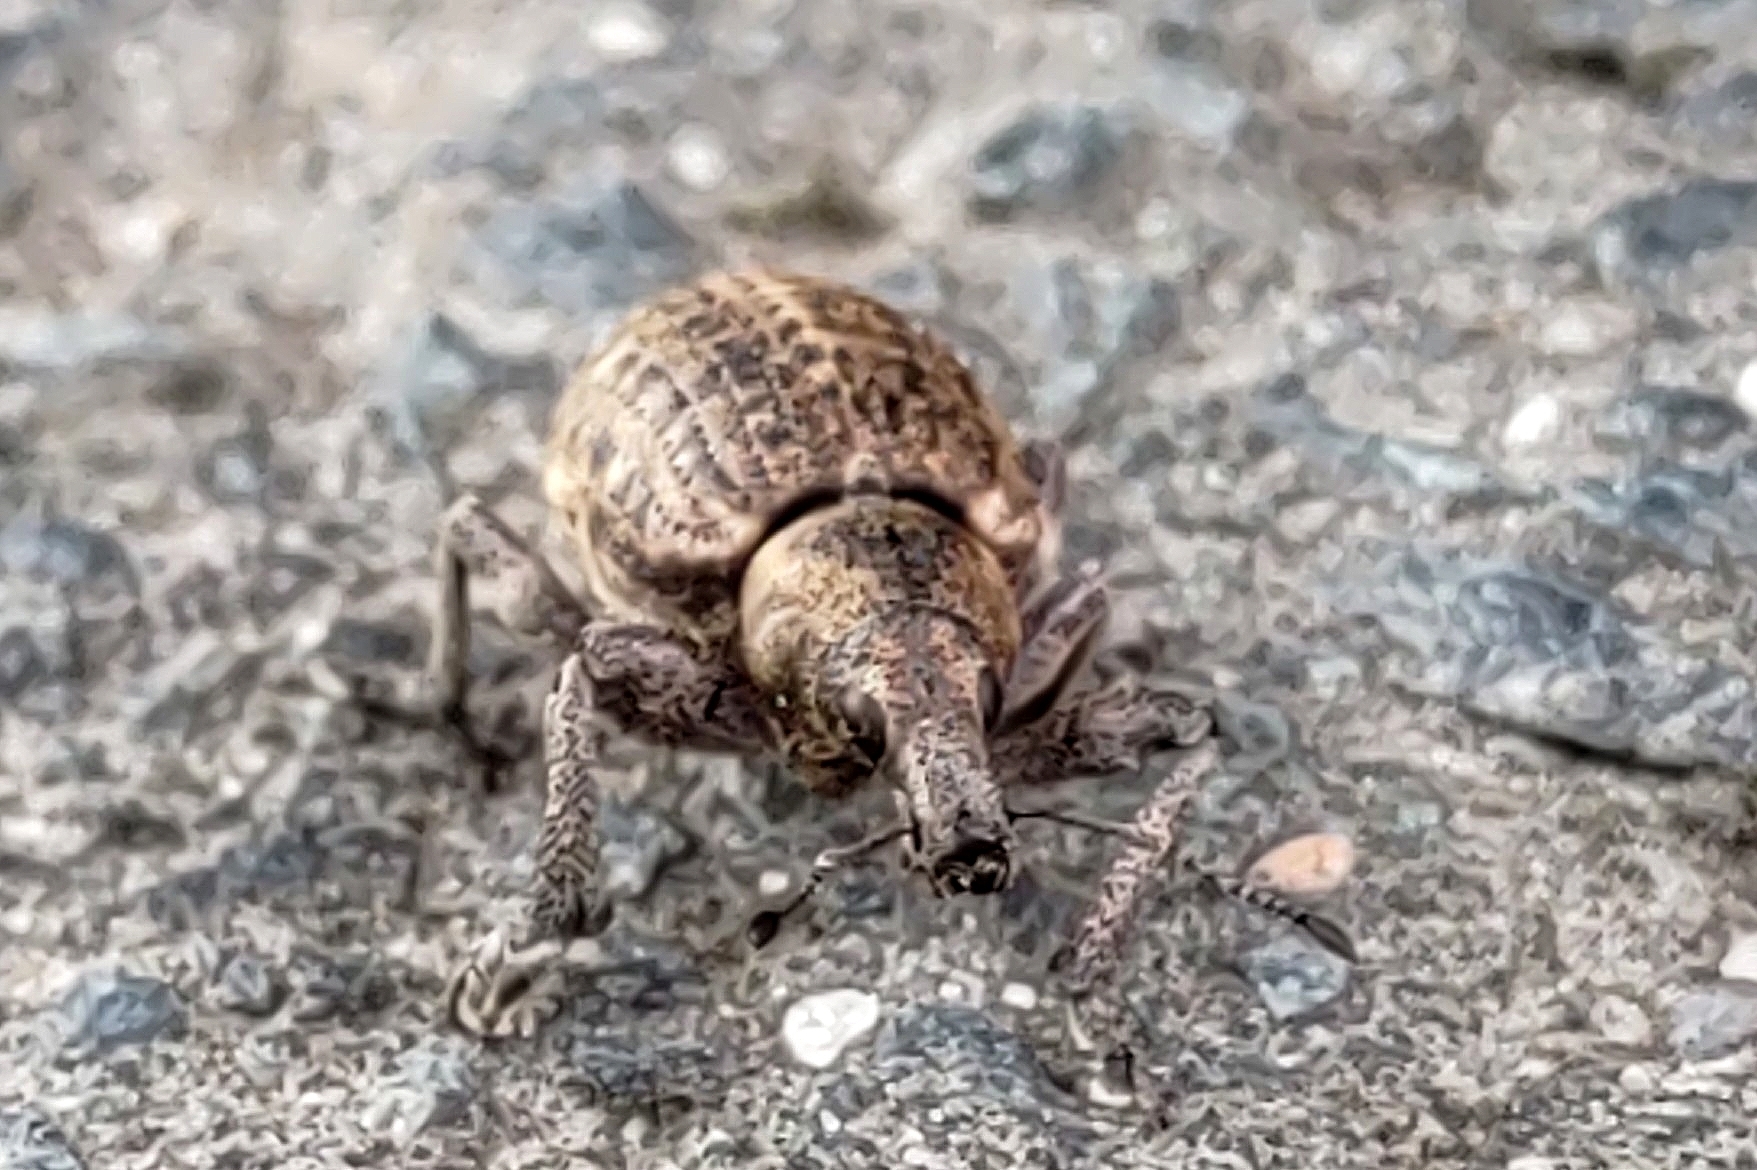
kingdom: Animalia
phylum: Arthropoda
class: Insecta
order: Coleoptera
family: Curculionidae
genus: Liophloeus
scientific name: Liophloeus tessulatus
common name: Weevil
